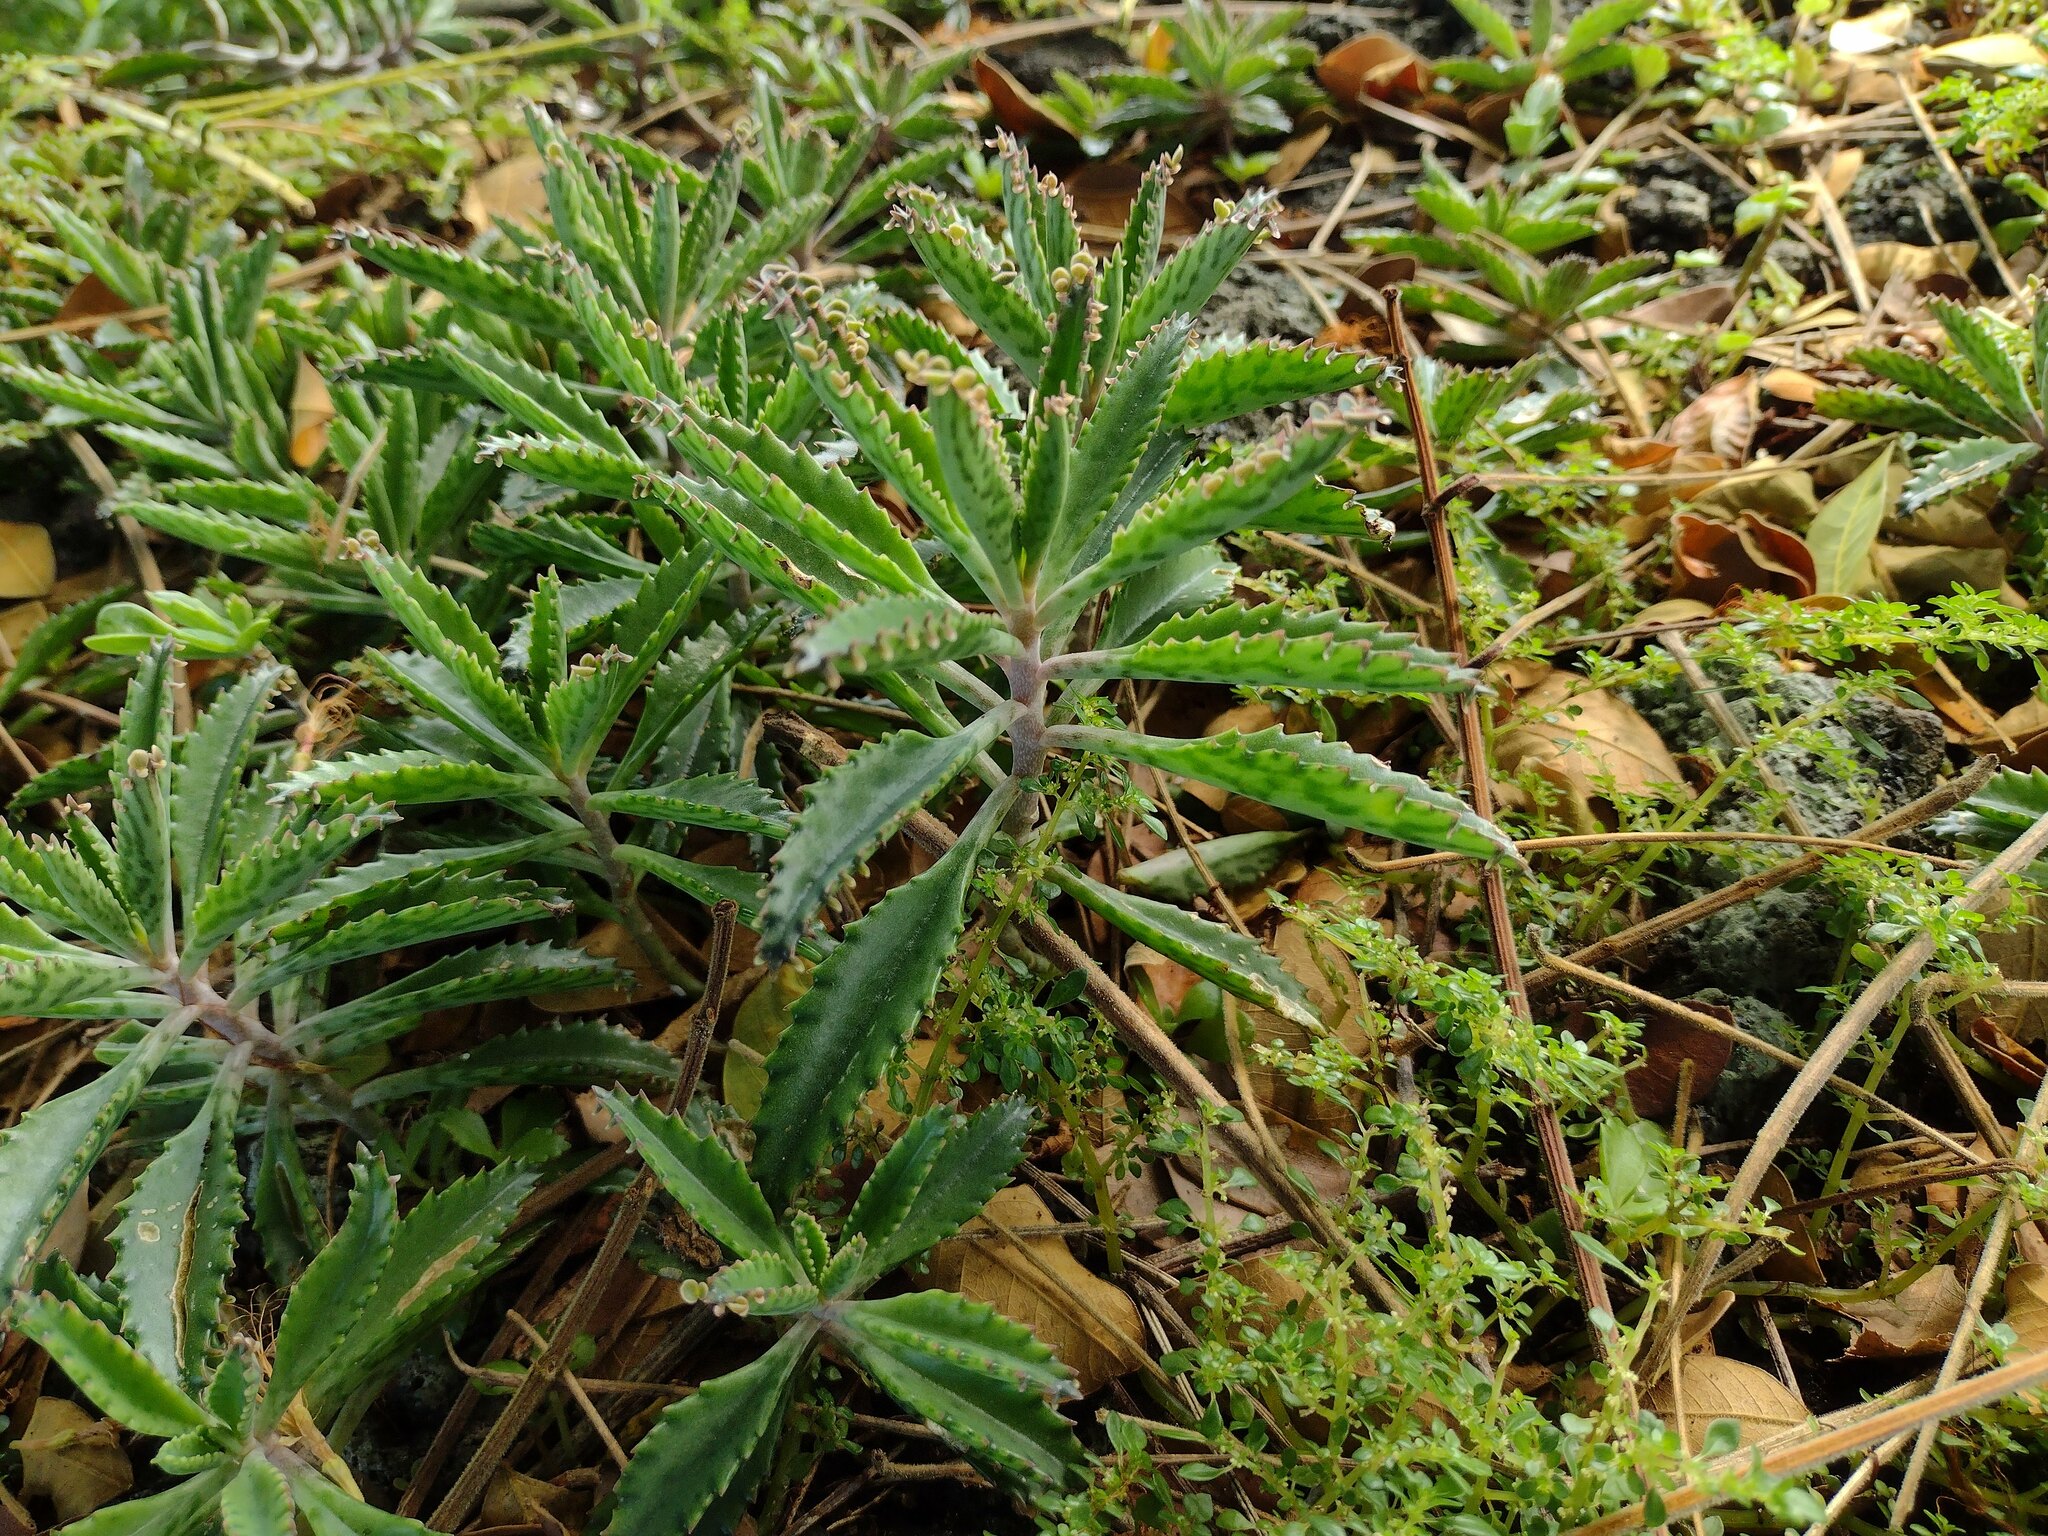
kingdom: Plantae
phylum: Tracheophyta
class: Magnoliopsida
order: Saxifragales
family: Crassulaceae
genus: Kalanchoe
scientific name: Kalanchoe houghtonii
